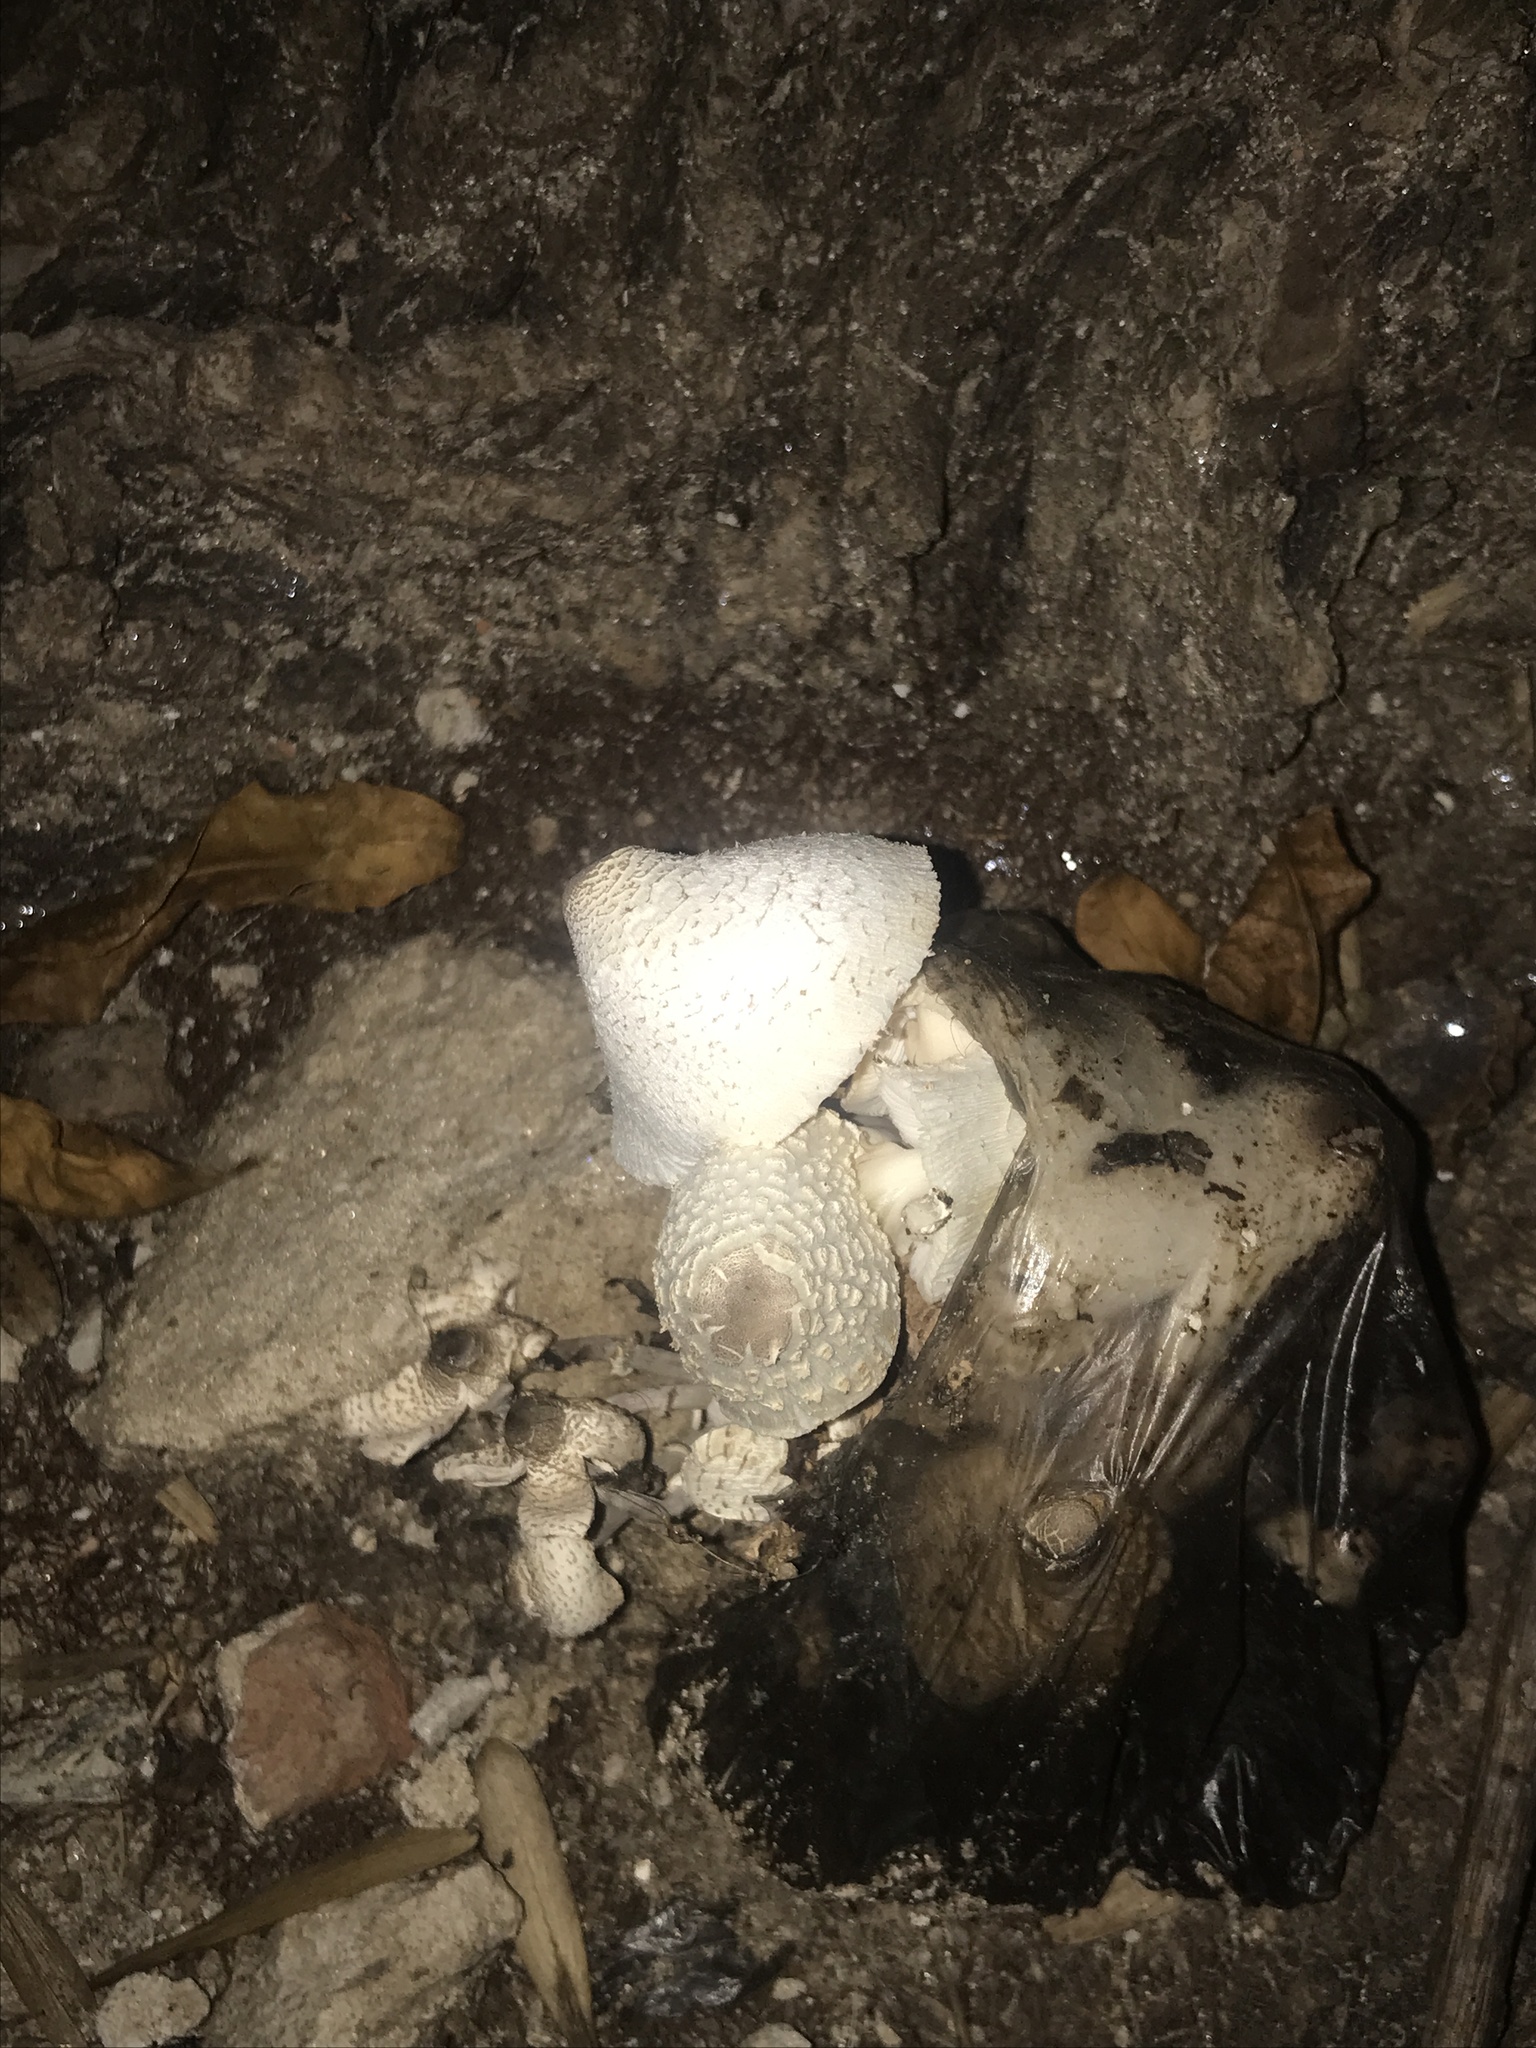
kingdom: Fungi
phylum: Basidiomycota
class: Agaricomycetes
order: Agaricales
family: Agaricaceae
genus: Leucocoprinus
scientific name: Leucocoprinus cepistipes
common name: Onion-stalk parasol
